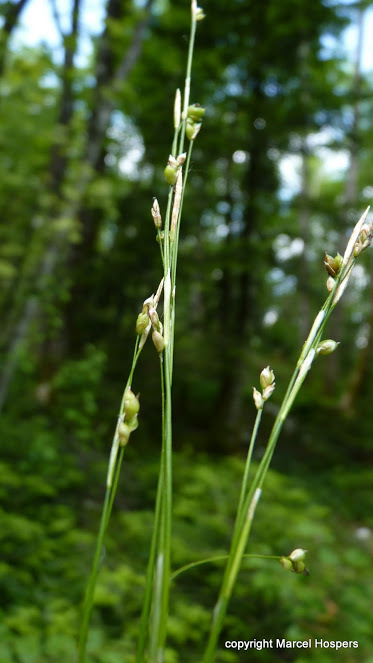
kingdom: Plantae
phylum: Tracheophyta
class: Liliopsida
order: Poales
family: Cyperaceae
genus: Carex
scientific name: Carex alba
